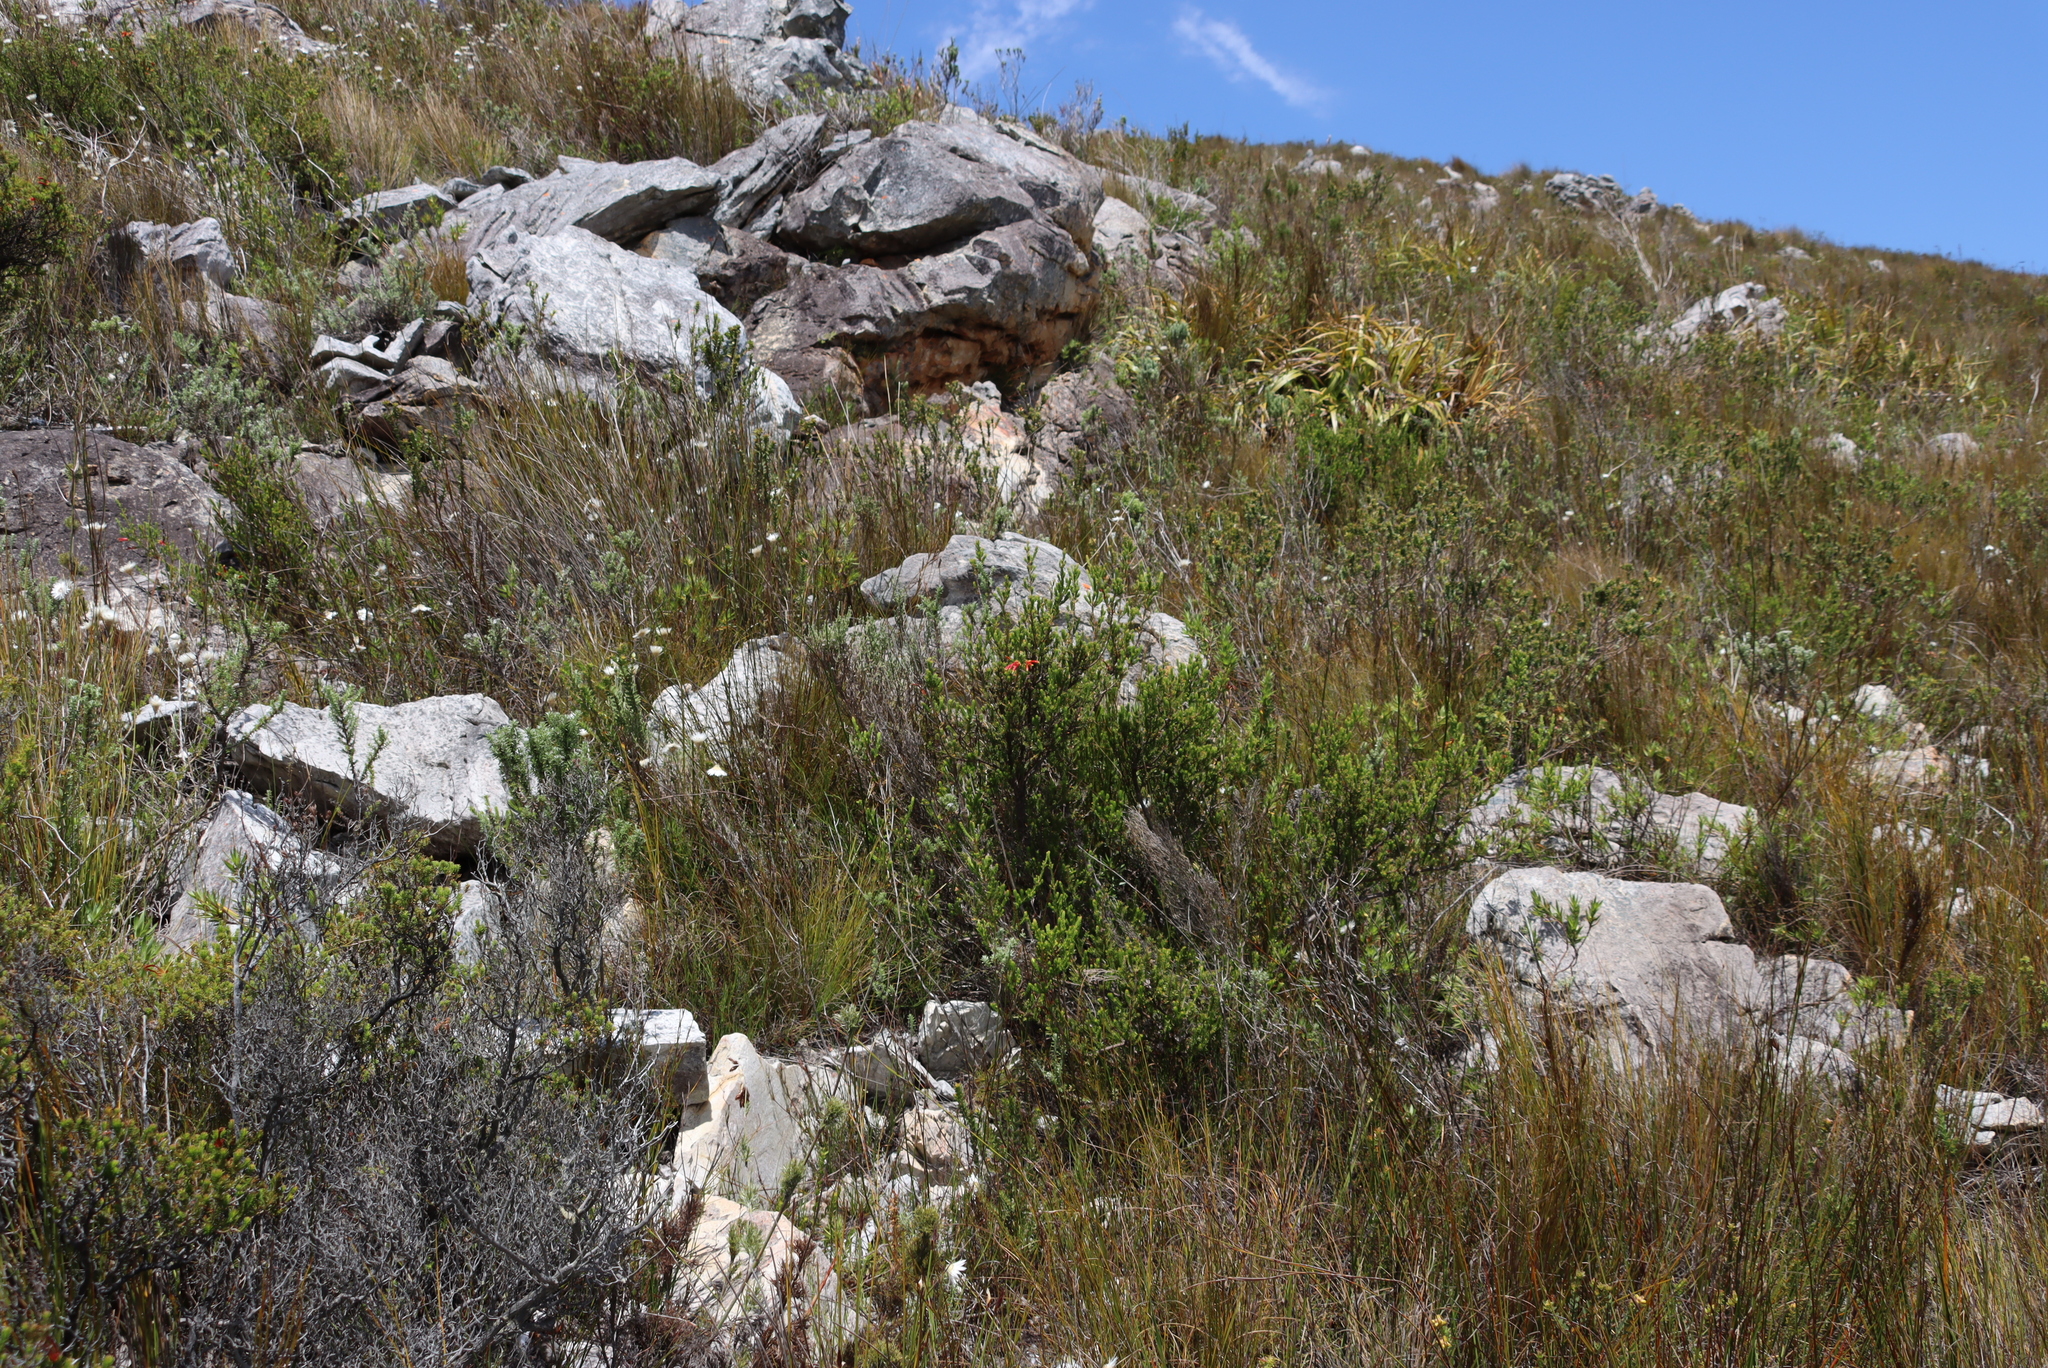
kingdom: Plantae
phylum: Tracheophyta
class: Magnoliopsida
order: Ericales
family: Ericaceae
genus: Erica
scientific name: Erica discolor
